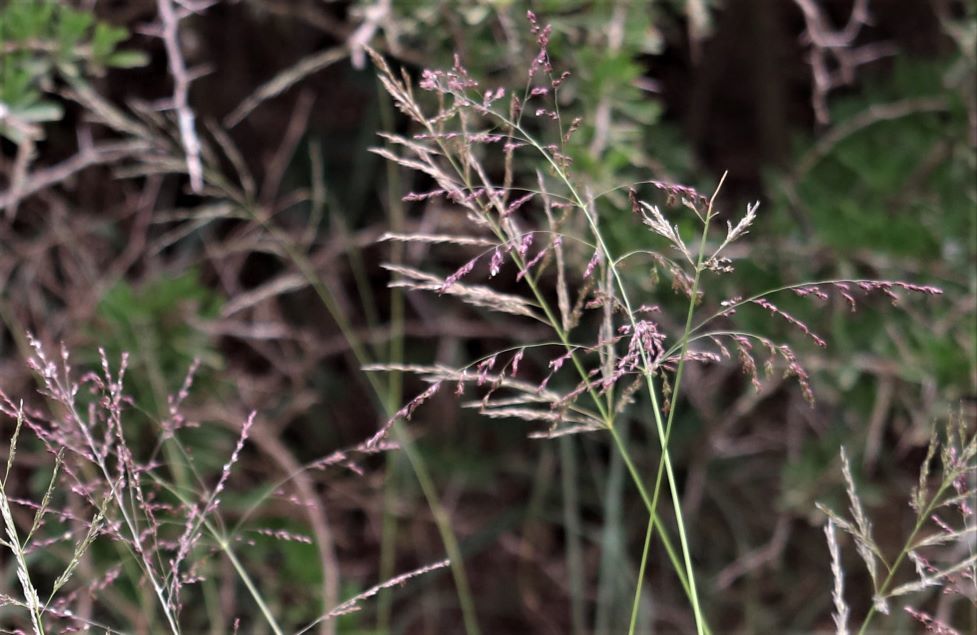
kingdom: Plantae
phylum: Tracheophyta
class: Liliopsida
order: Poales
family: Poaceae
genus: Megathyrsus
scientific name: Megathyrsus maximus
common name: Guineagrass
